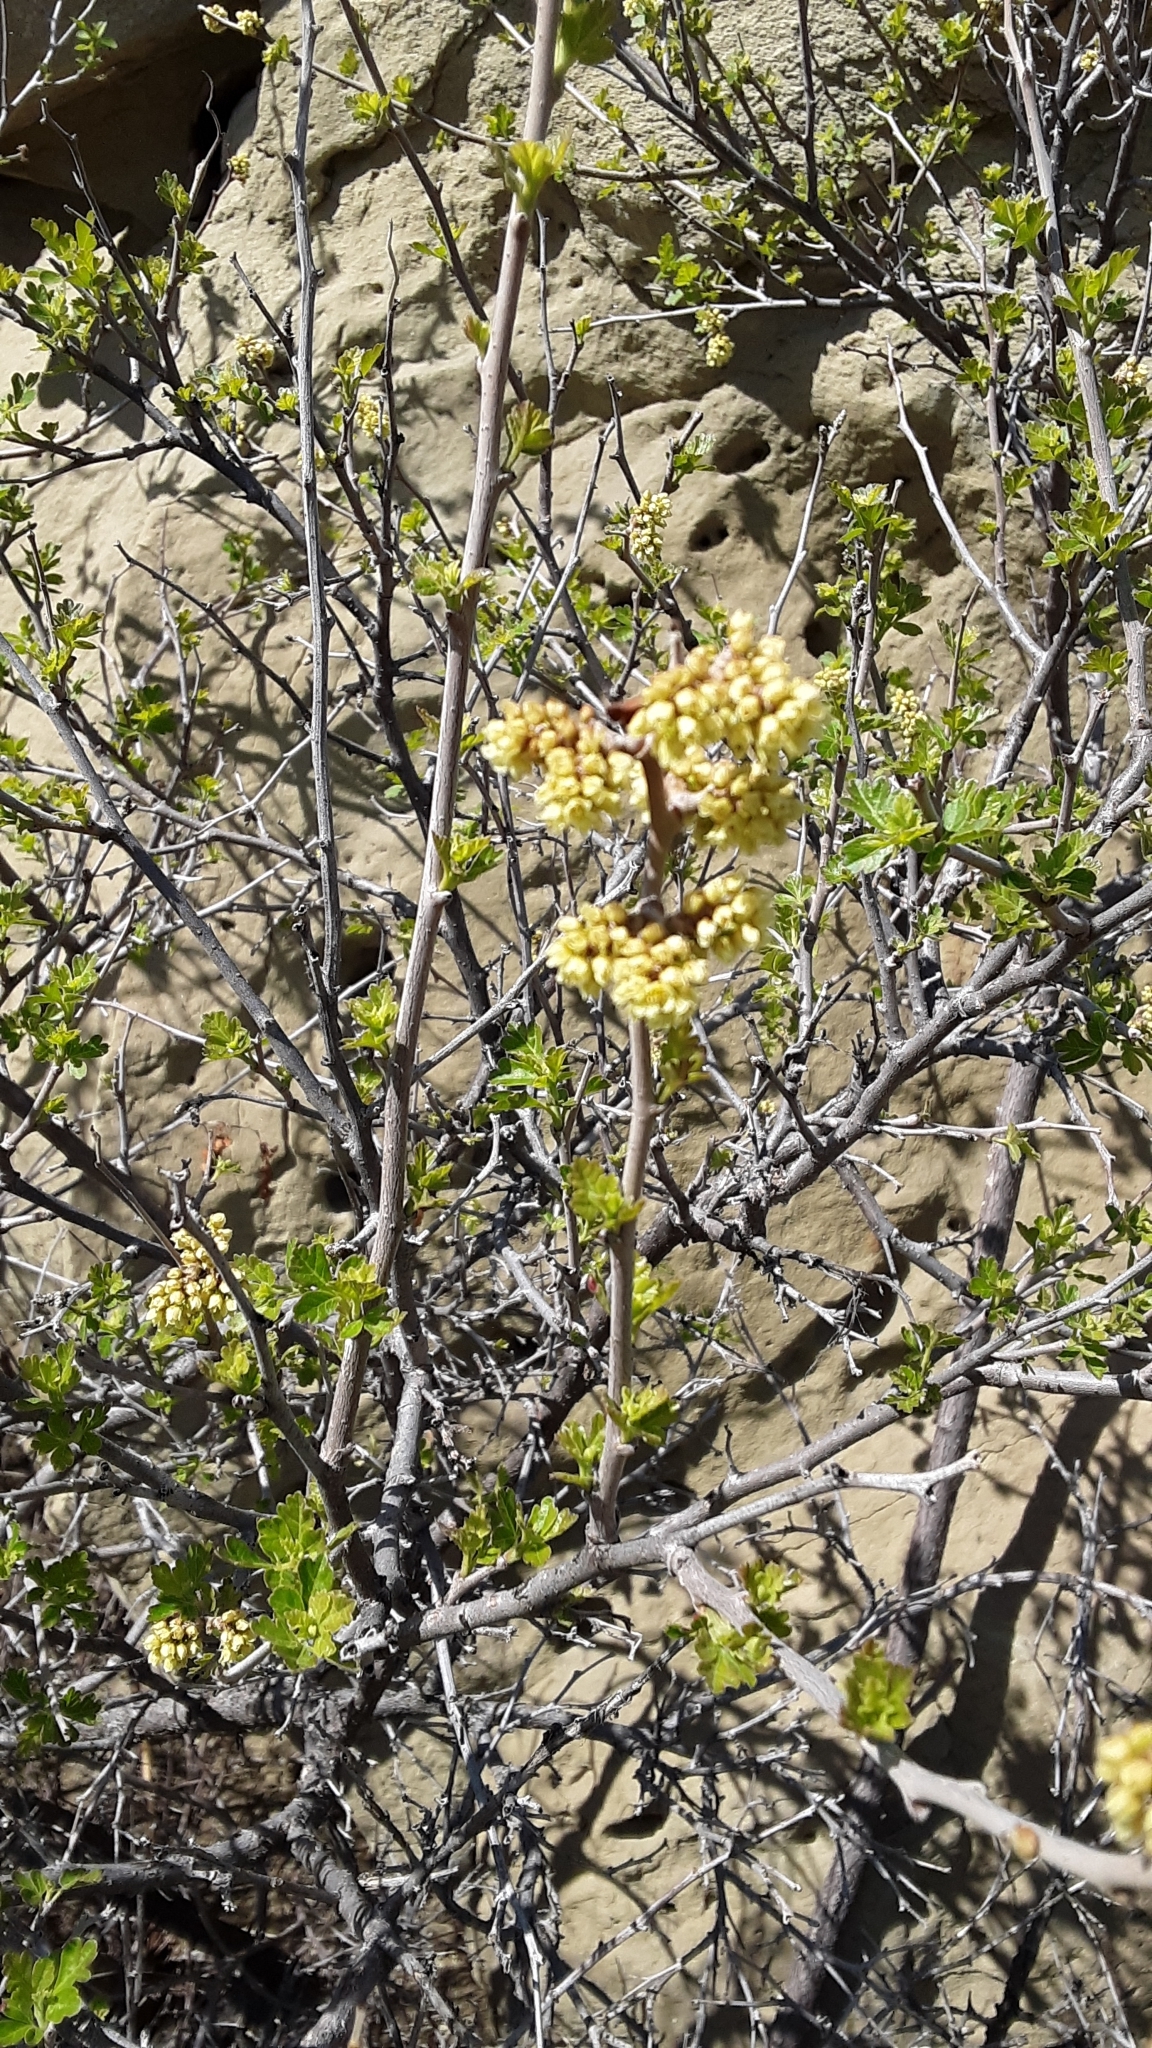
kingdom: Plantae
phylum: Tracheophyta
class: Magnoliopsida
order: Sapindales
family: Anacardiaceae
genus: Rhus
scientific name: Rhus aromatica
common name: Aromatic sumac
